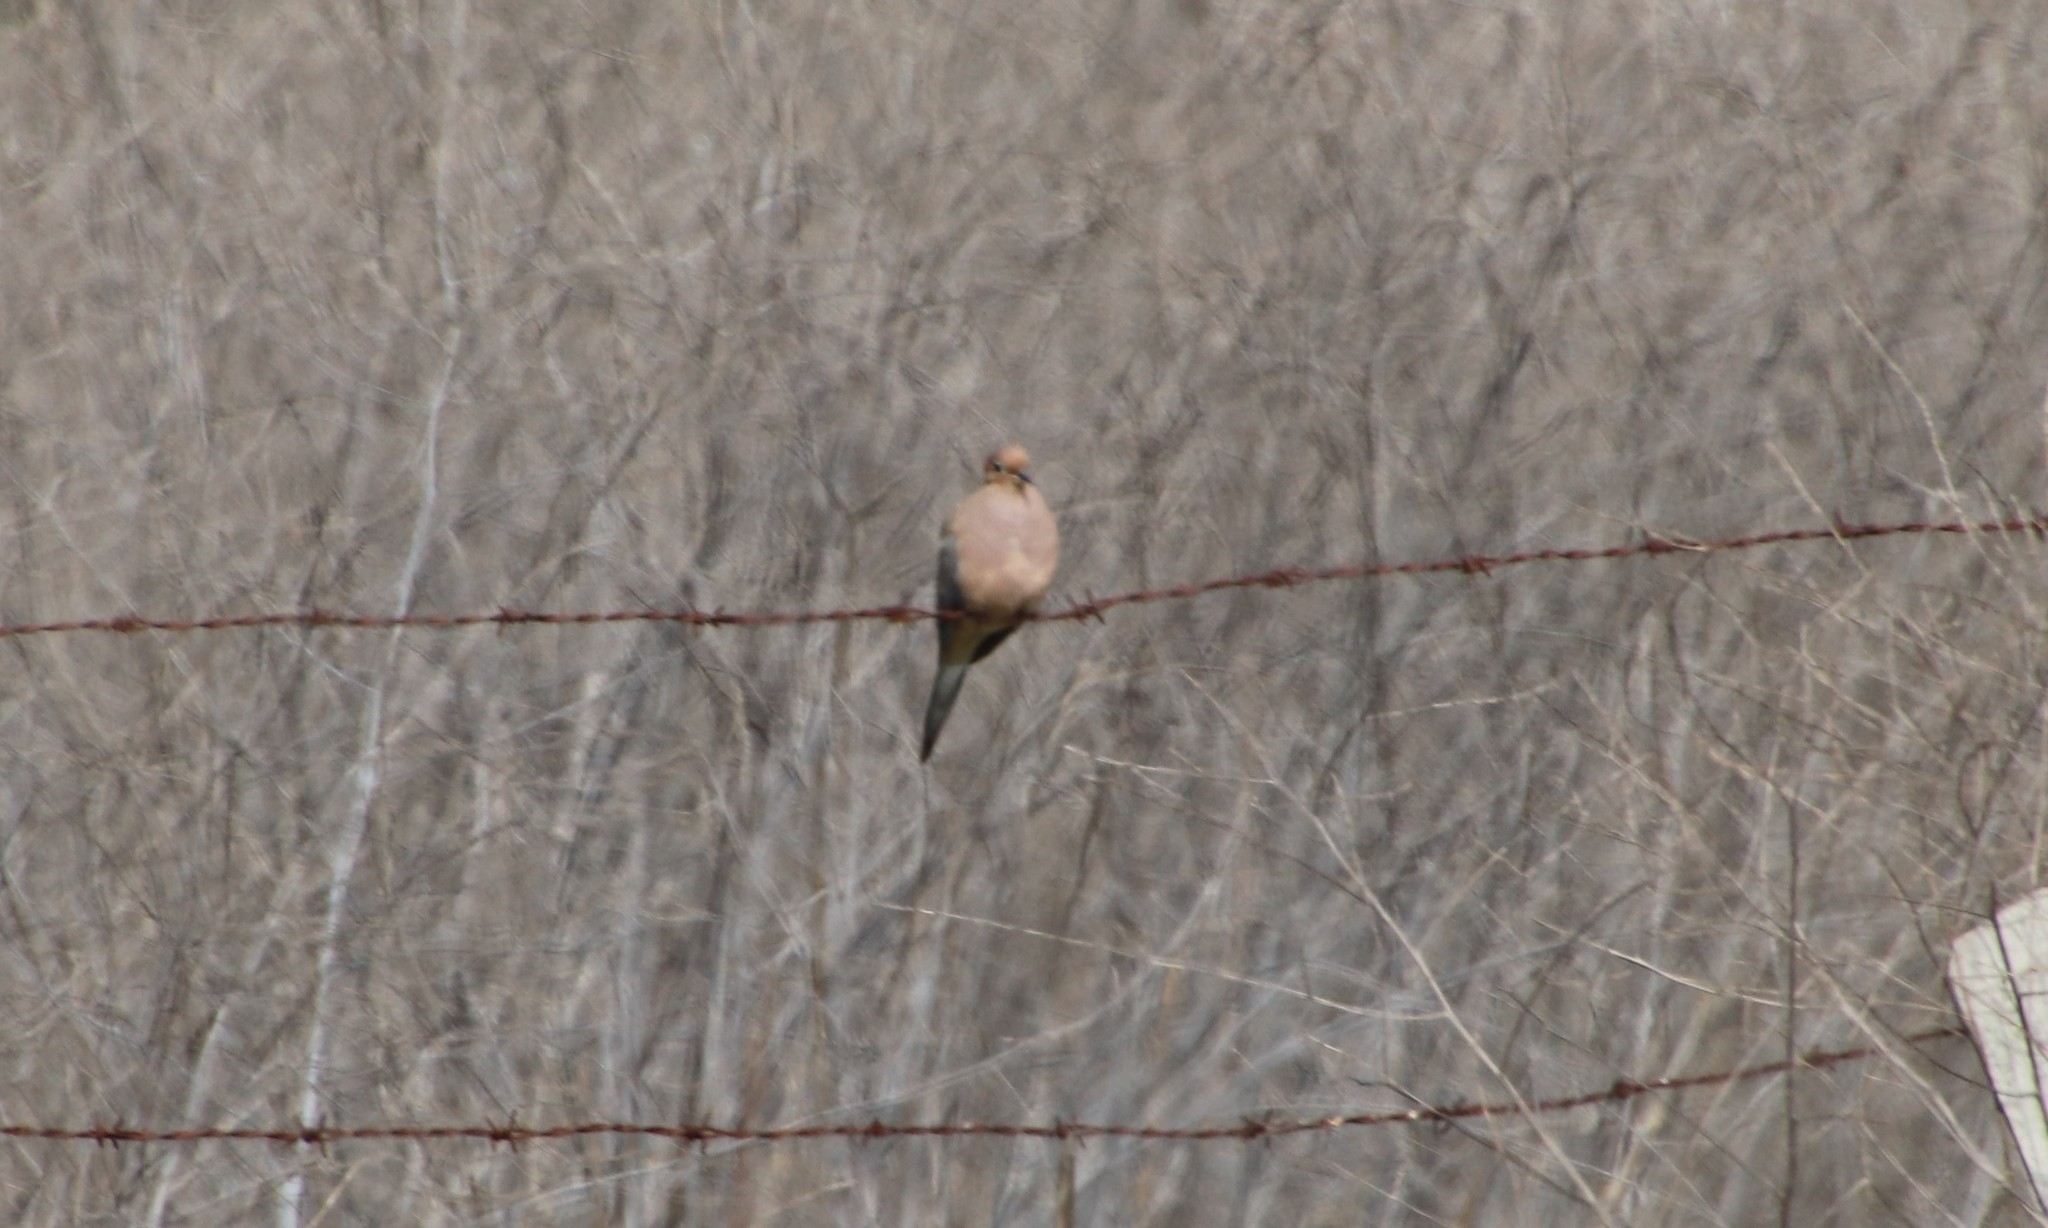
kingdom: Animalia
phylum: Chordata
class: Aves
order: Columbiformes
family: Columbidae
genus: Zenaida
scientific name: Zenaida macroura
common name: Mourning dove
